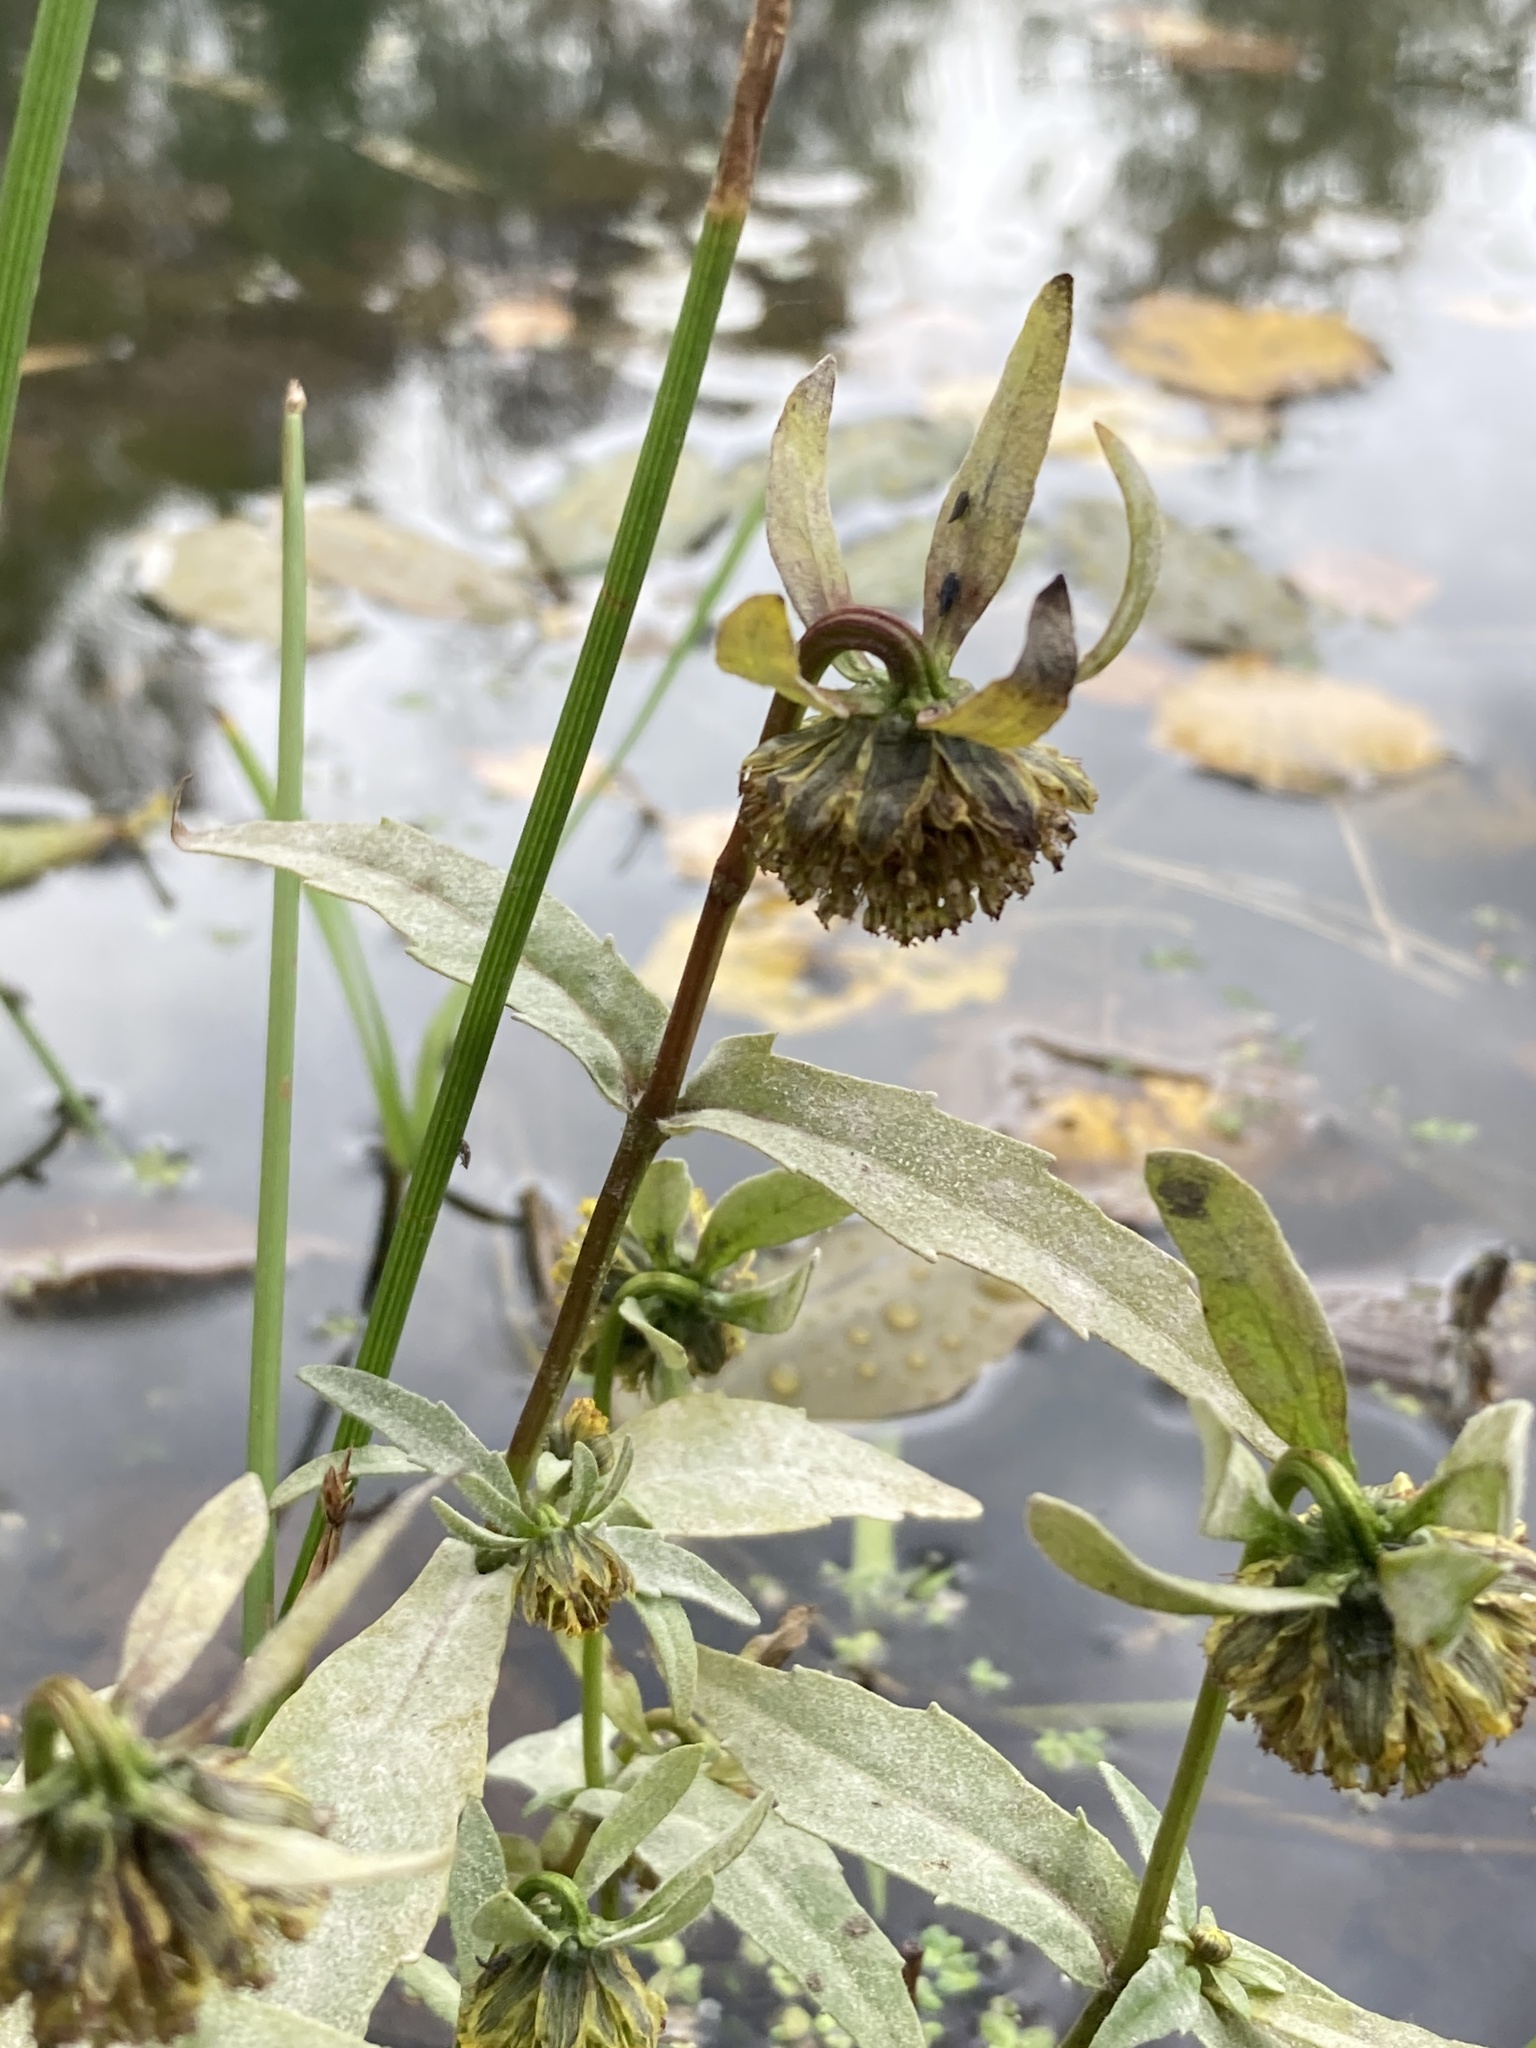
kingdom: Plantae
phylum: Tracheophyta
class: Magnoliopsida
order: Asterales
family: Asteraceae
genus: Bidens
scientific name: Bidens cernua
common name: Nodding bur-marigold
